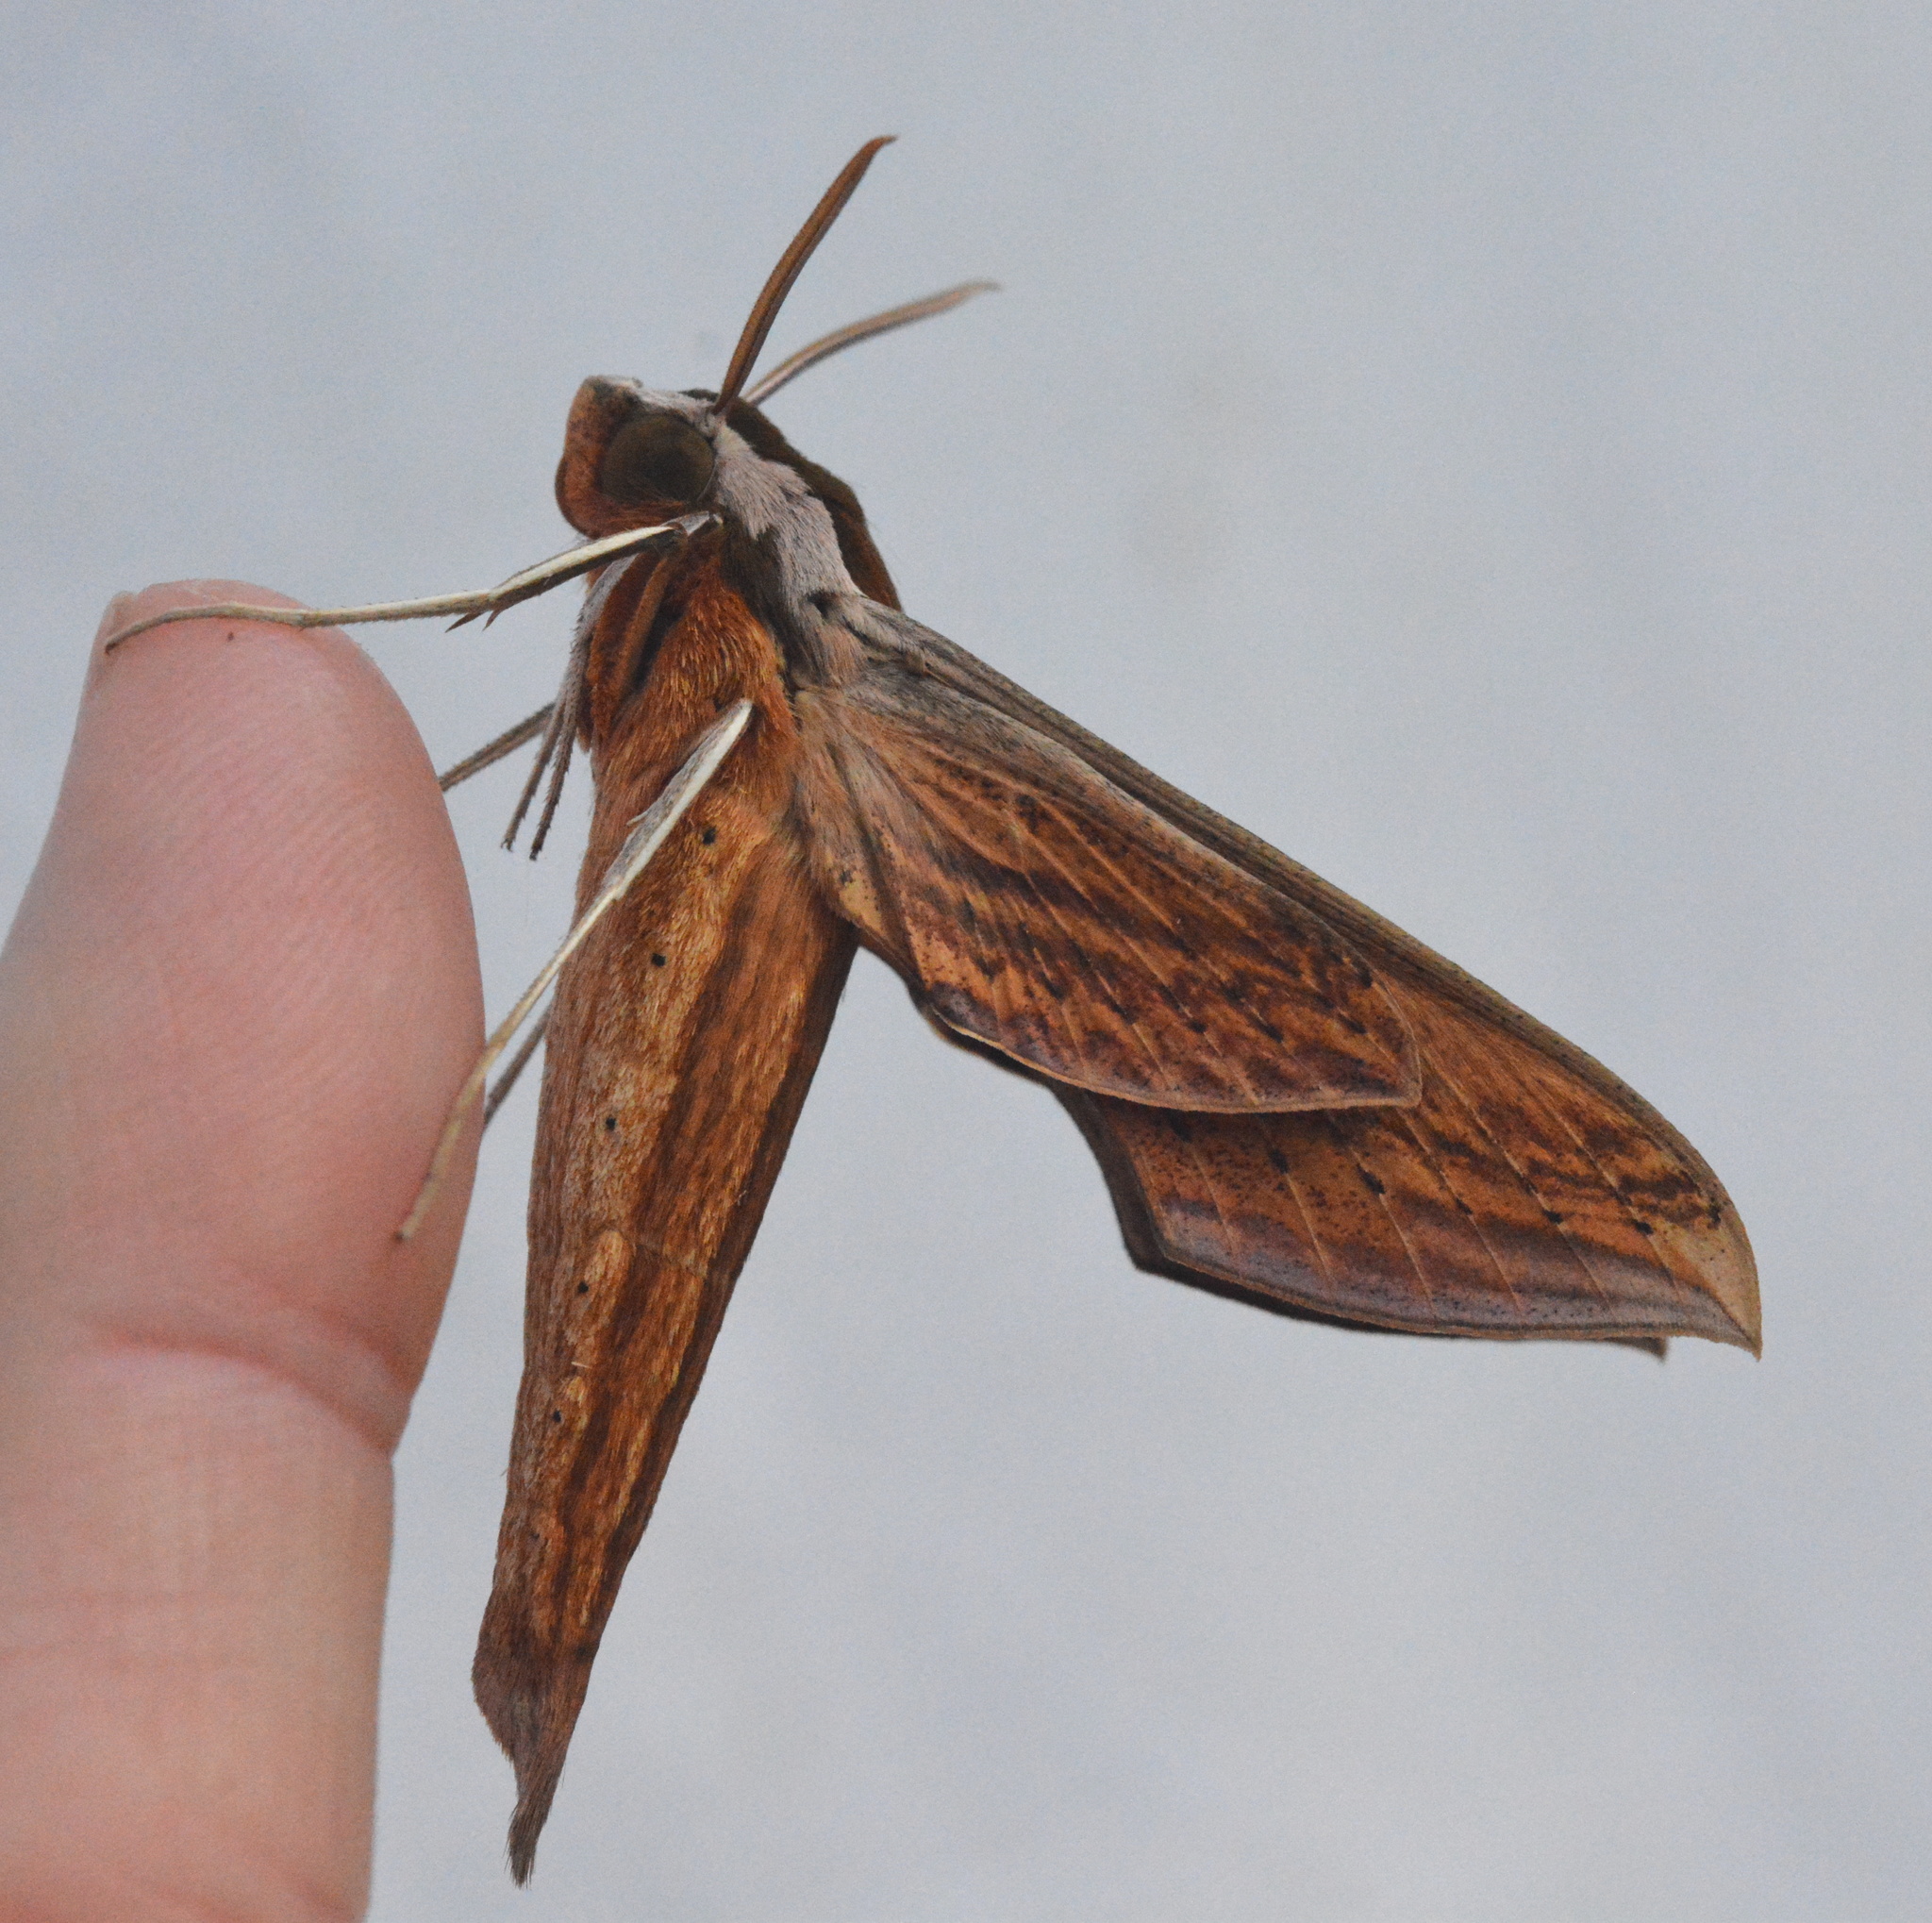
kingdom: Animalia
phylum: Arthropoda
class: Insecta
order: Lepidoptera
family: Sphingidae
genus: Xylophanes
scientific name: Xylophanes tersa
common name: Tersa sphinx
